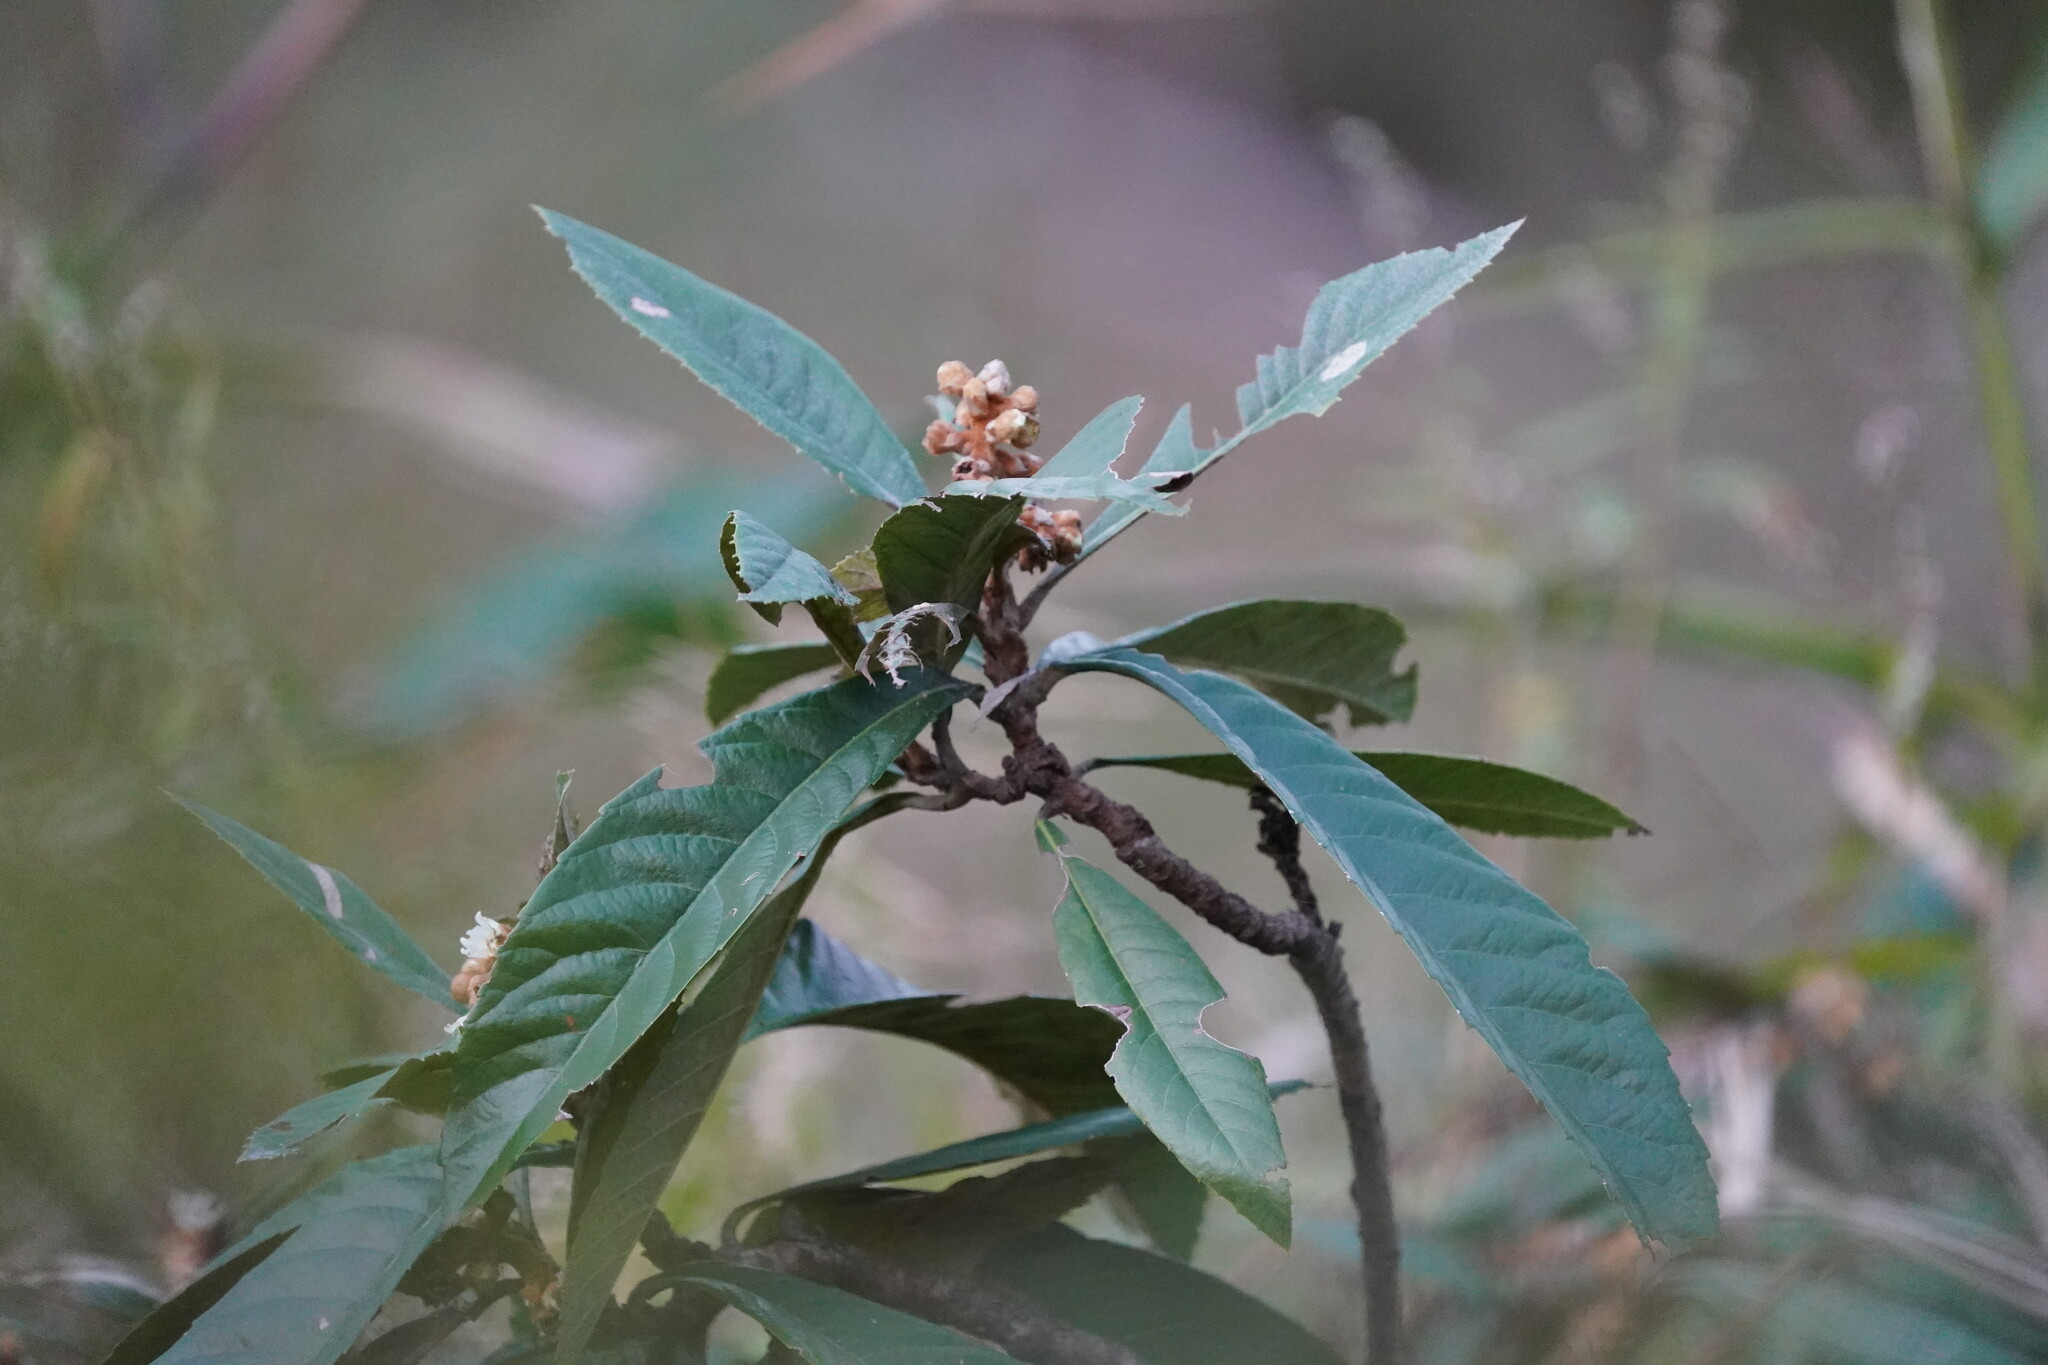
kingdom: Plantae
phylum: Tracheophyta
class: Magnoliopsida
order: Rosales
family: Rosaceae
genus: Rhaphiolepis
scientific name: Rhaphiolepis bibas
